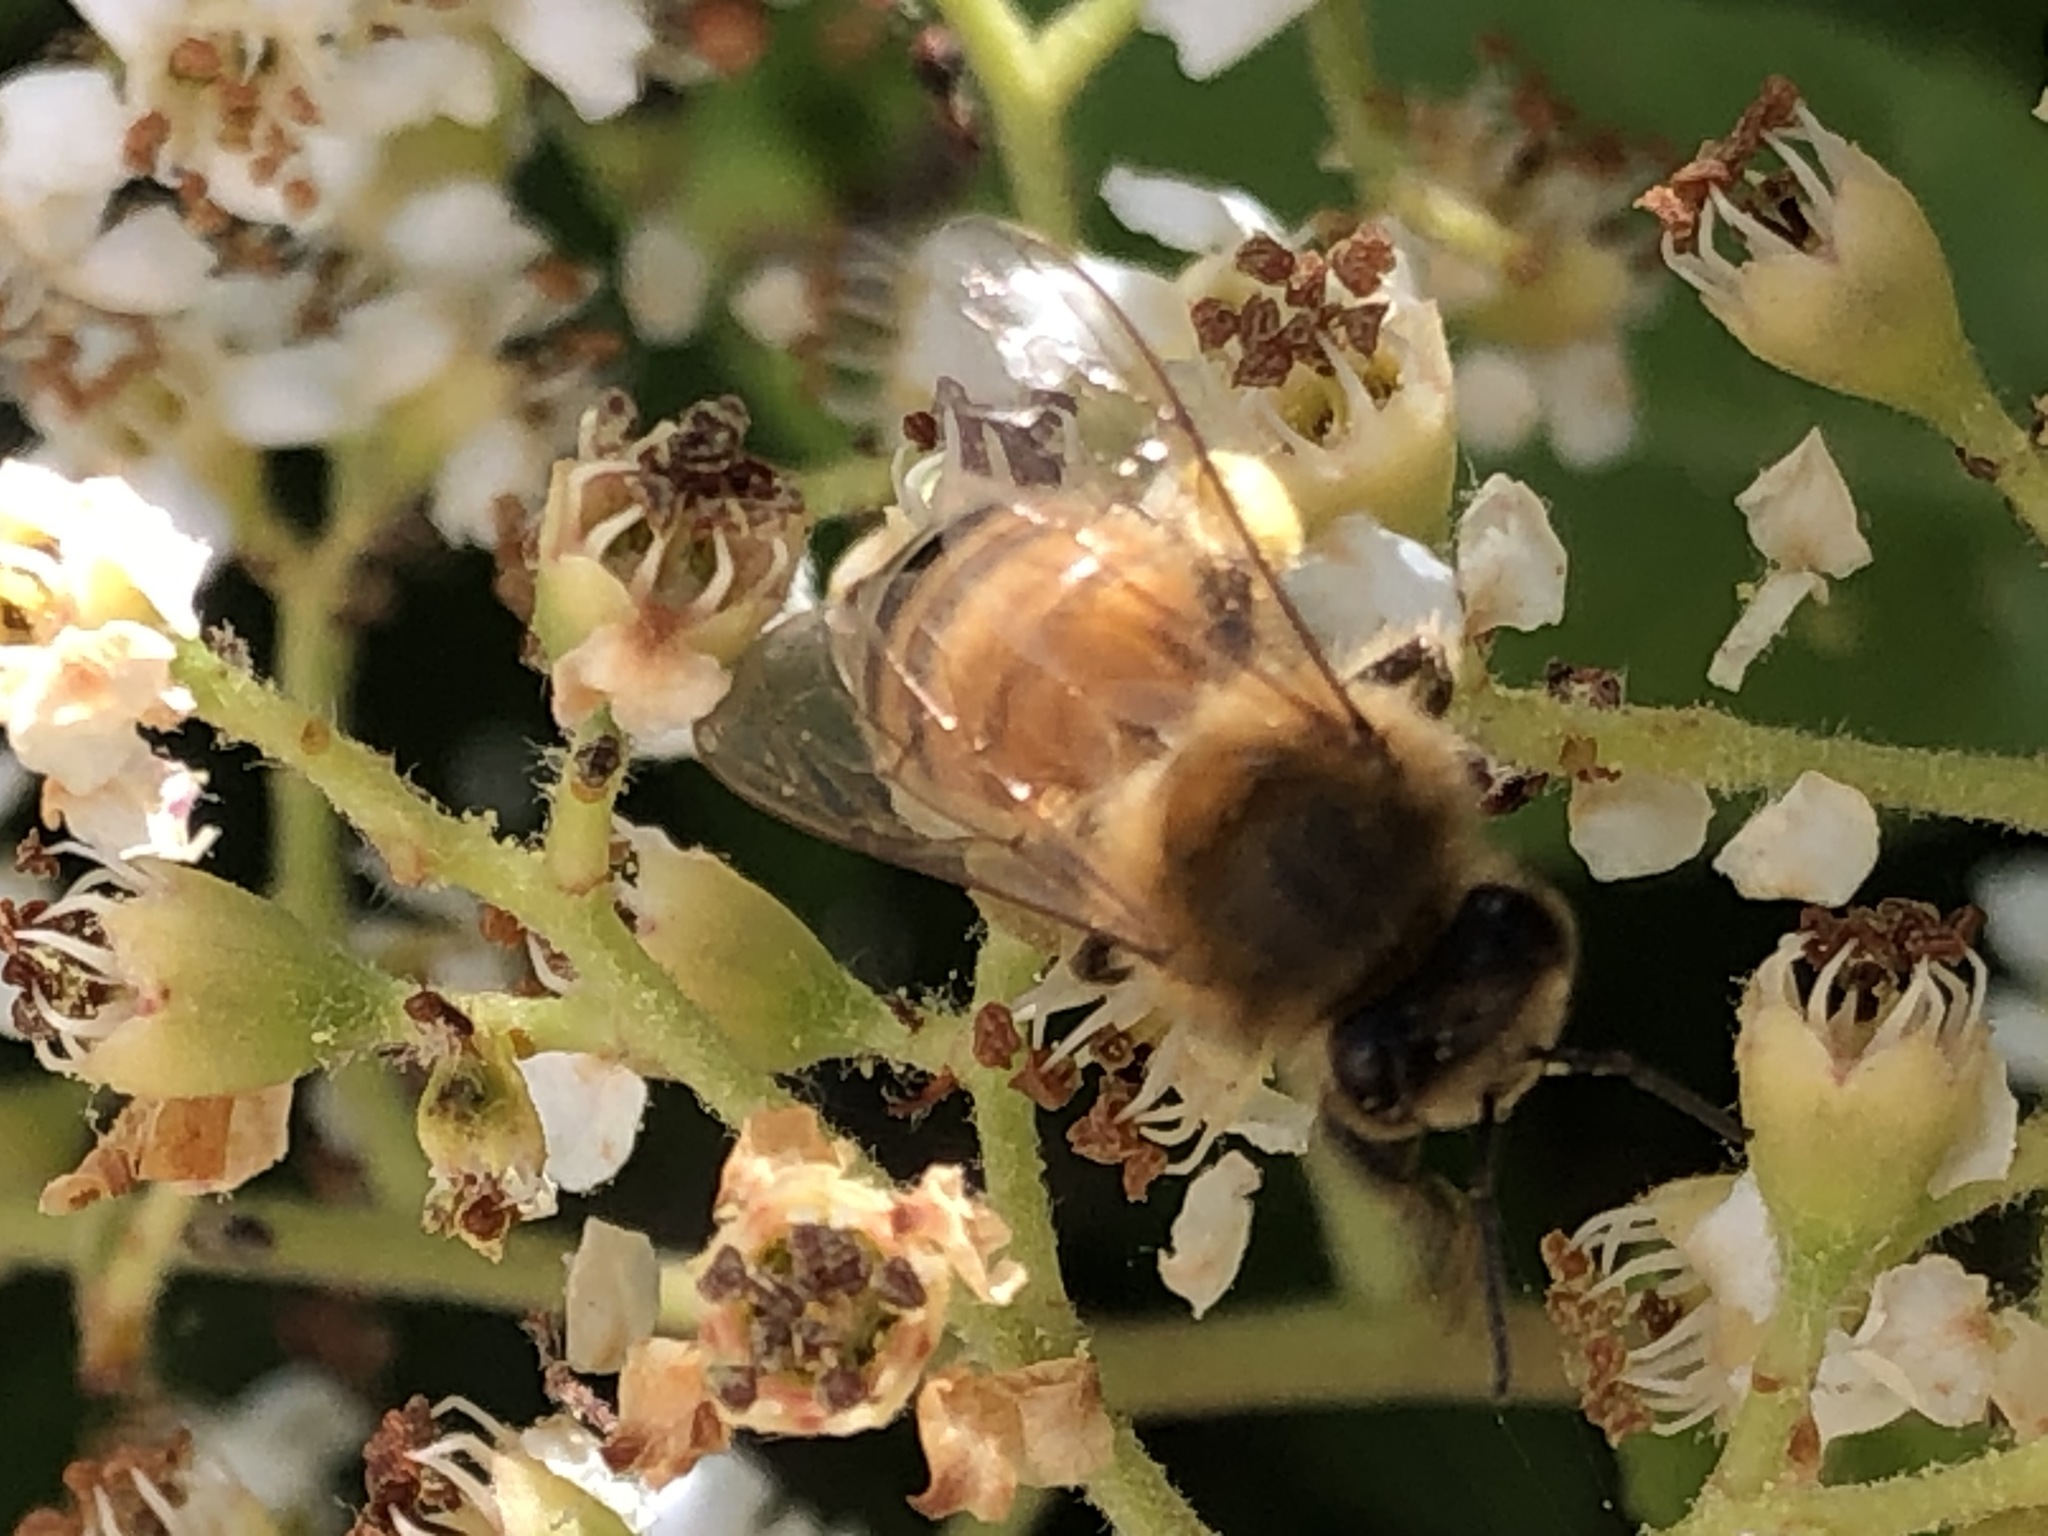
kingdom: Animalia
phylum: Arthropoda
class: Insecta
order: Hymenoptera
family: Apidae
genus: Apis
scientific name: Apis mellifera
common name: Honey bee
